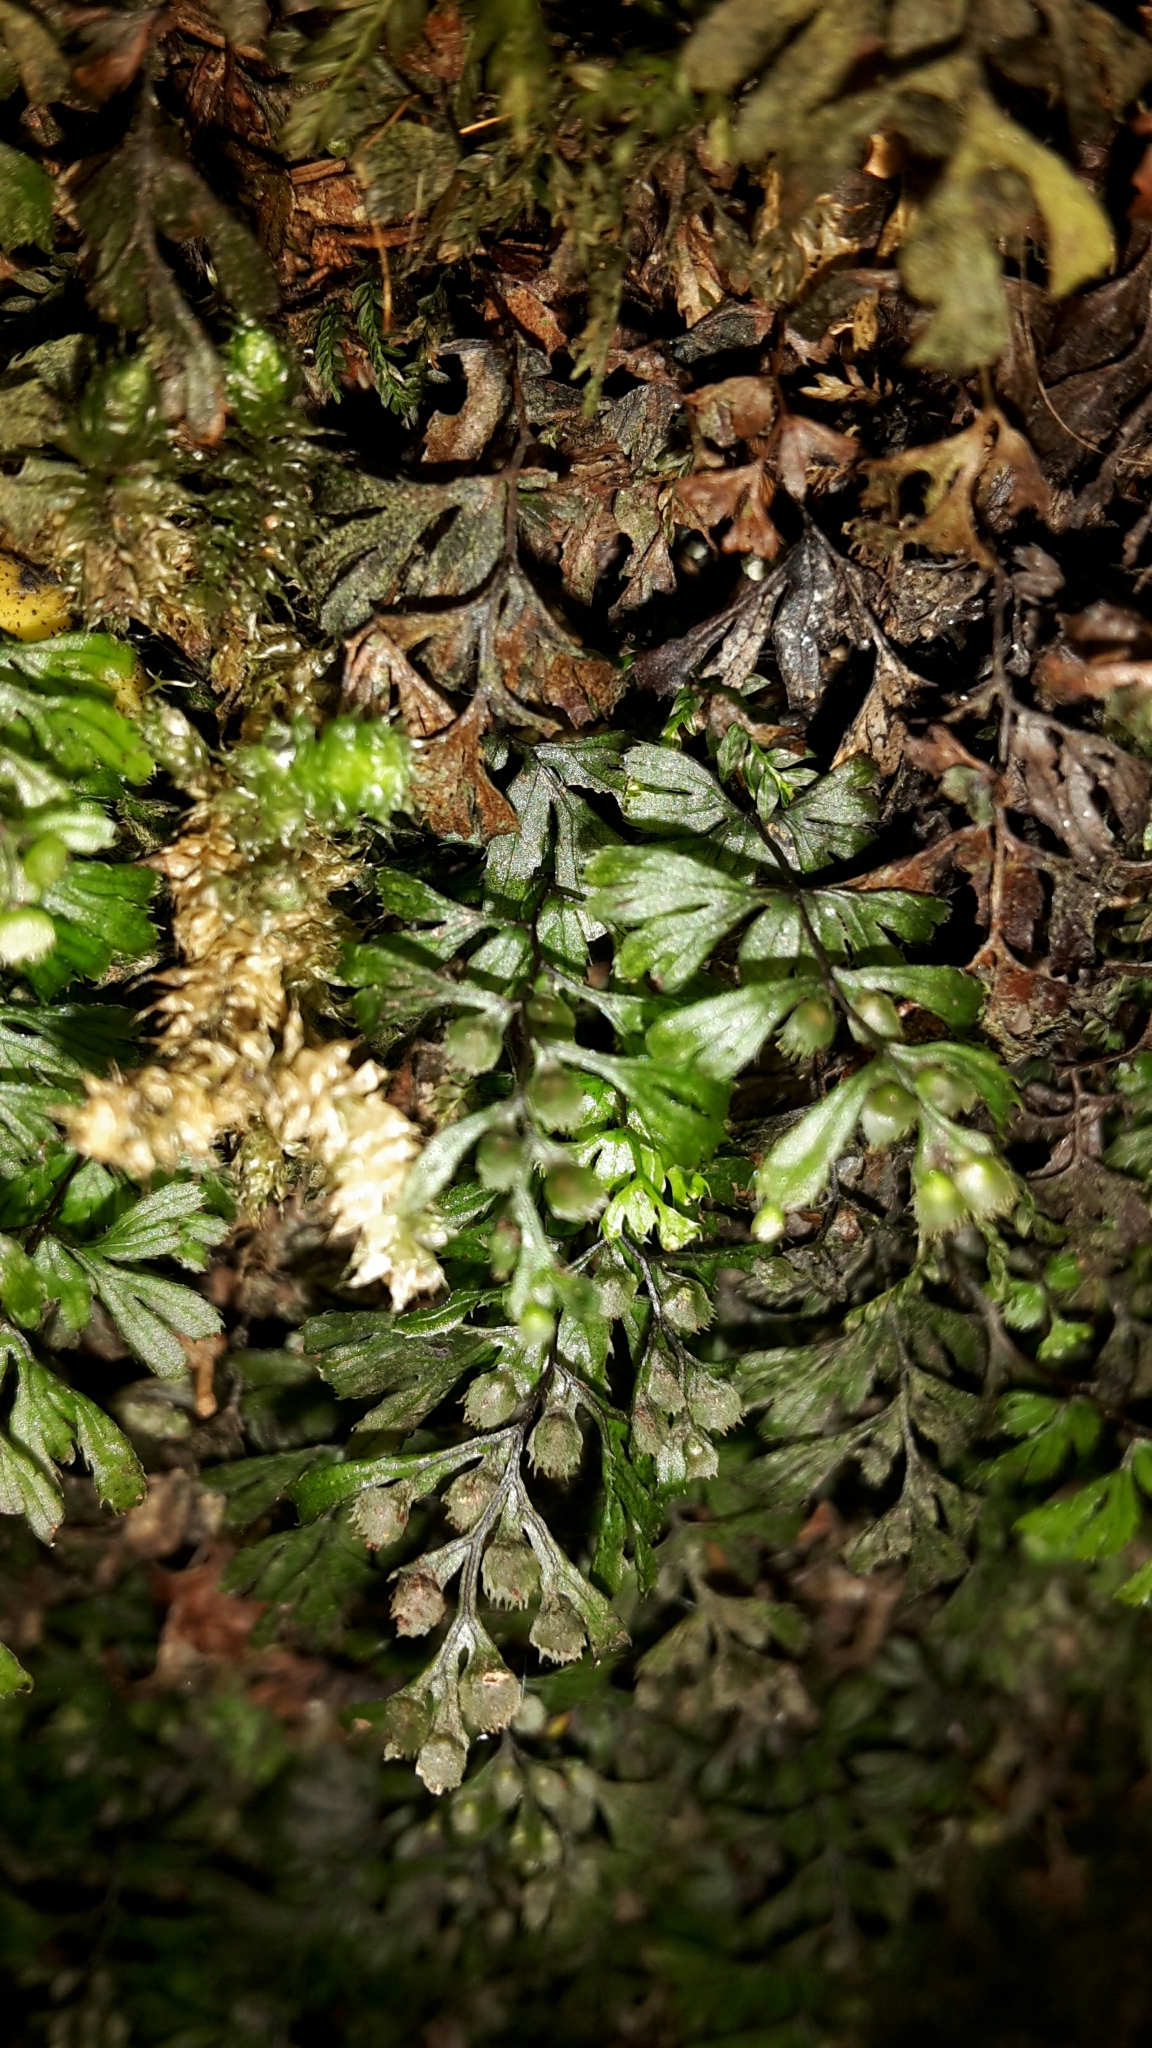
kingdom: Plantae
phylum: Tracheophyta
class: Polypodiopsida
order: Hymenophyllales
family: Hymenophyllaceae
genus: Hymenophyllum
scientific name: Hymenophyllum revolutum
